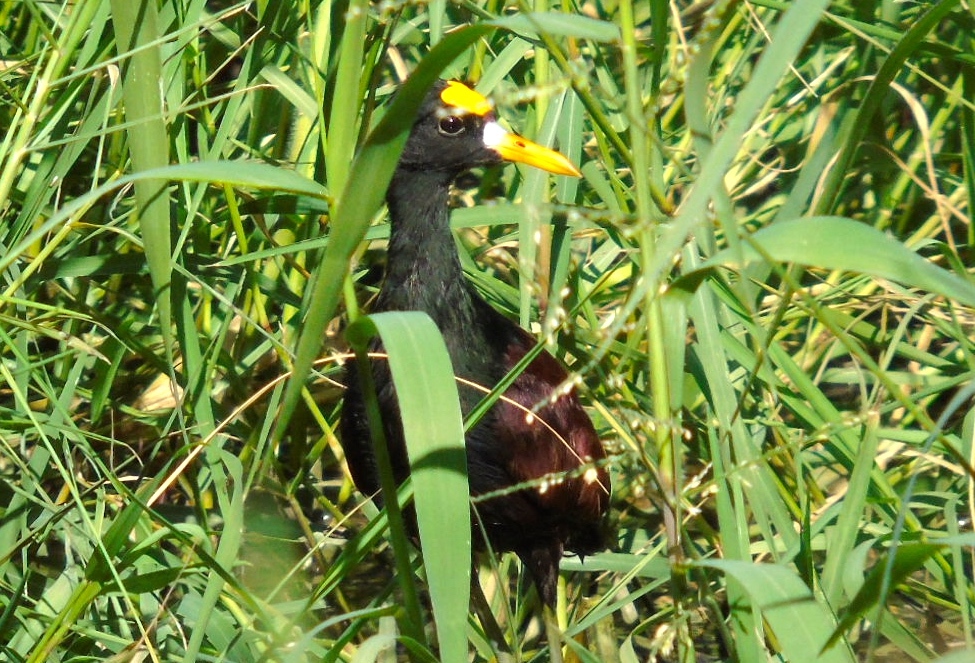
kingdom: Animalia
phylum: Chordata
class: Aves
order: Charadriiformes
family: Jacanidae
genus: Jacana
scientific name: Jacana spinosa
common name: Northern jacana
